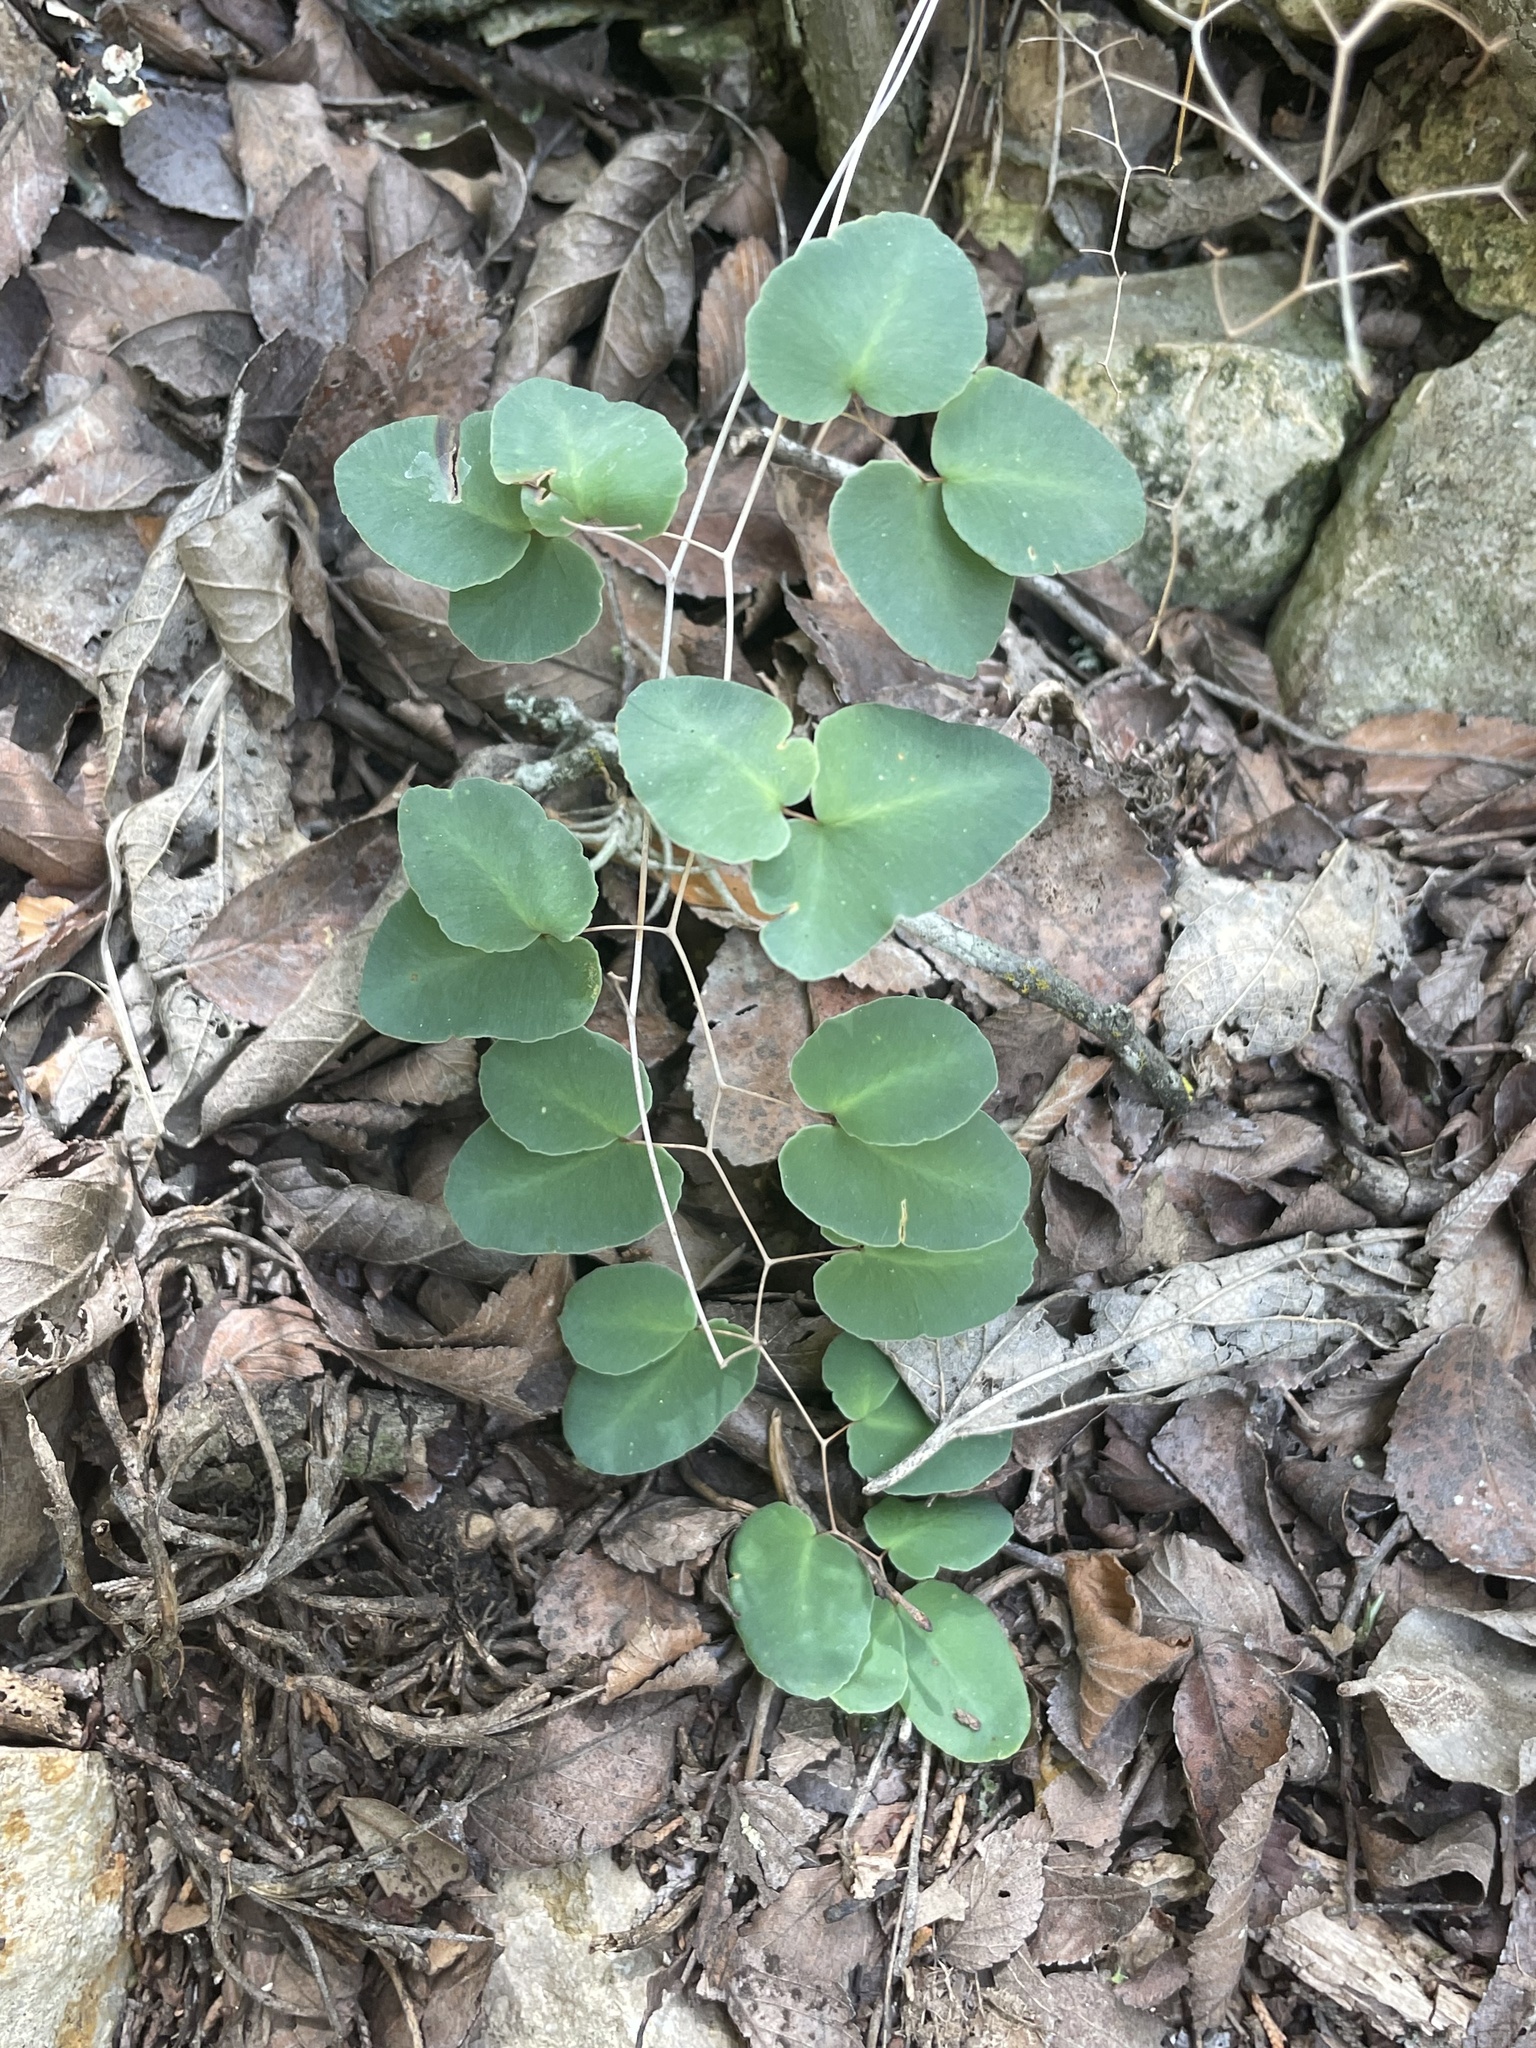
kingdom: Plantae
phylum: Tracheophyta
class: Polypodiopsida
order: Polypodiales
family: Pteridaceae
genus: Pellaea
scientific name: Pellaea ovata
